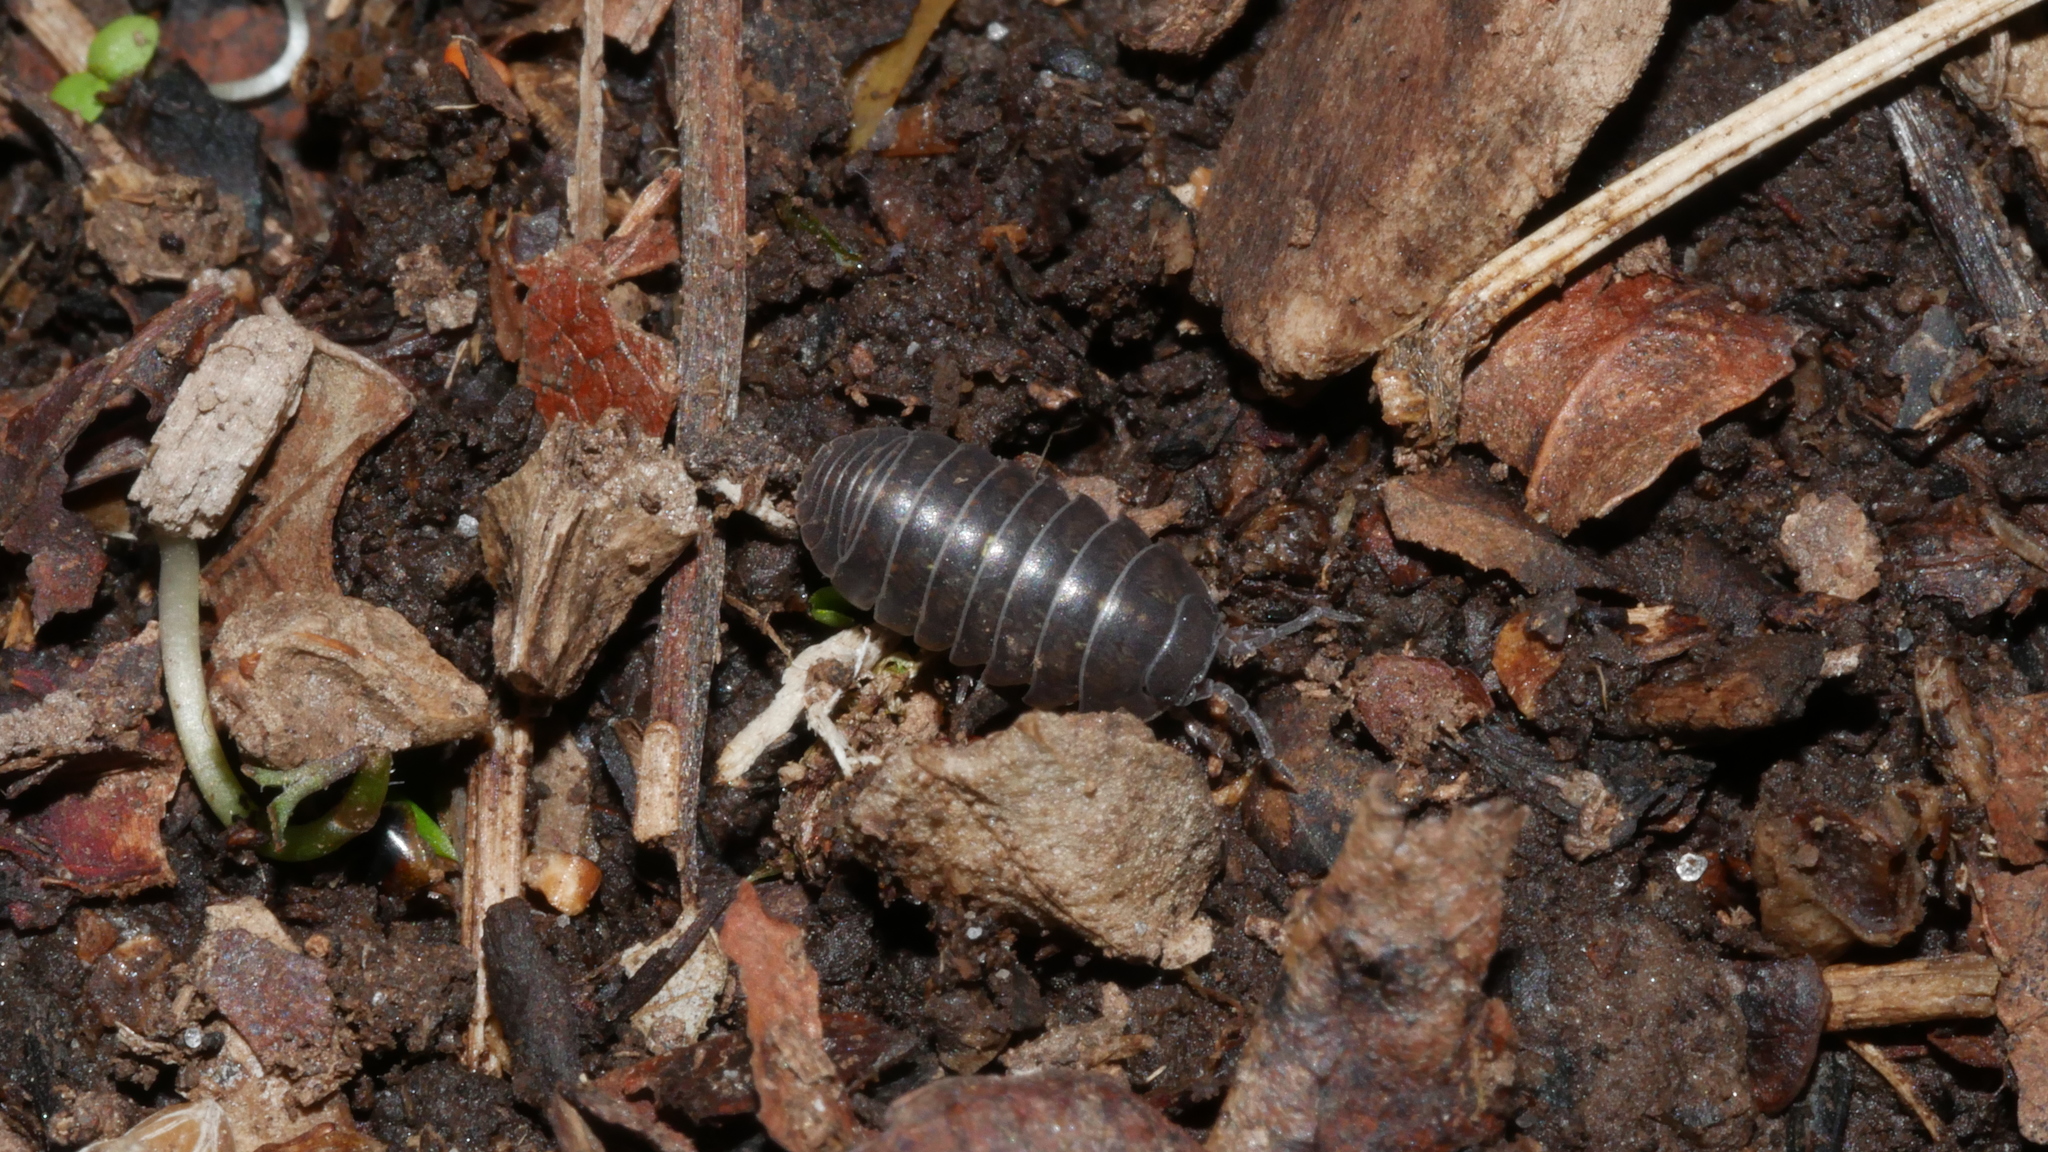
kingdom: Animalia
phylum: Arthropoda
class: Malacostraca
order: Isopoda
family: Armadillidiidae
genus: Armadillidium
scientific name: Armadillidium vulgare
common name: Common pill woodlouse
